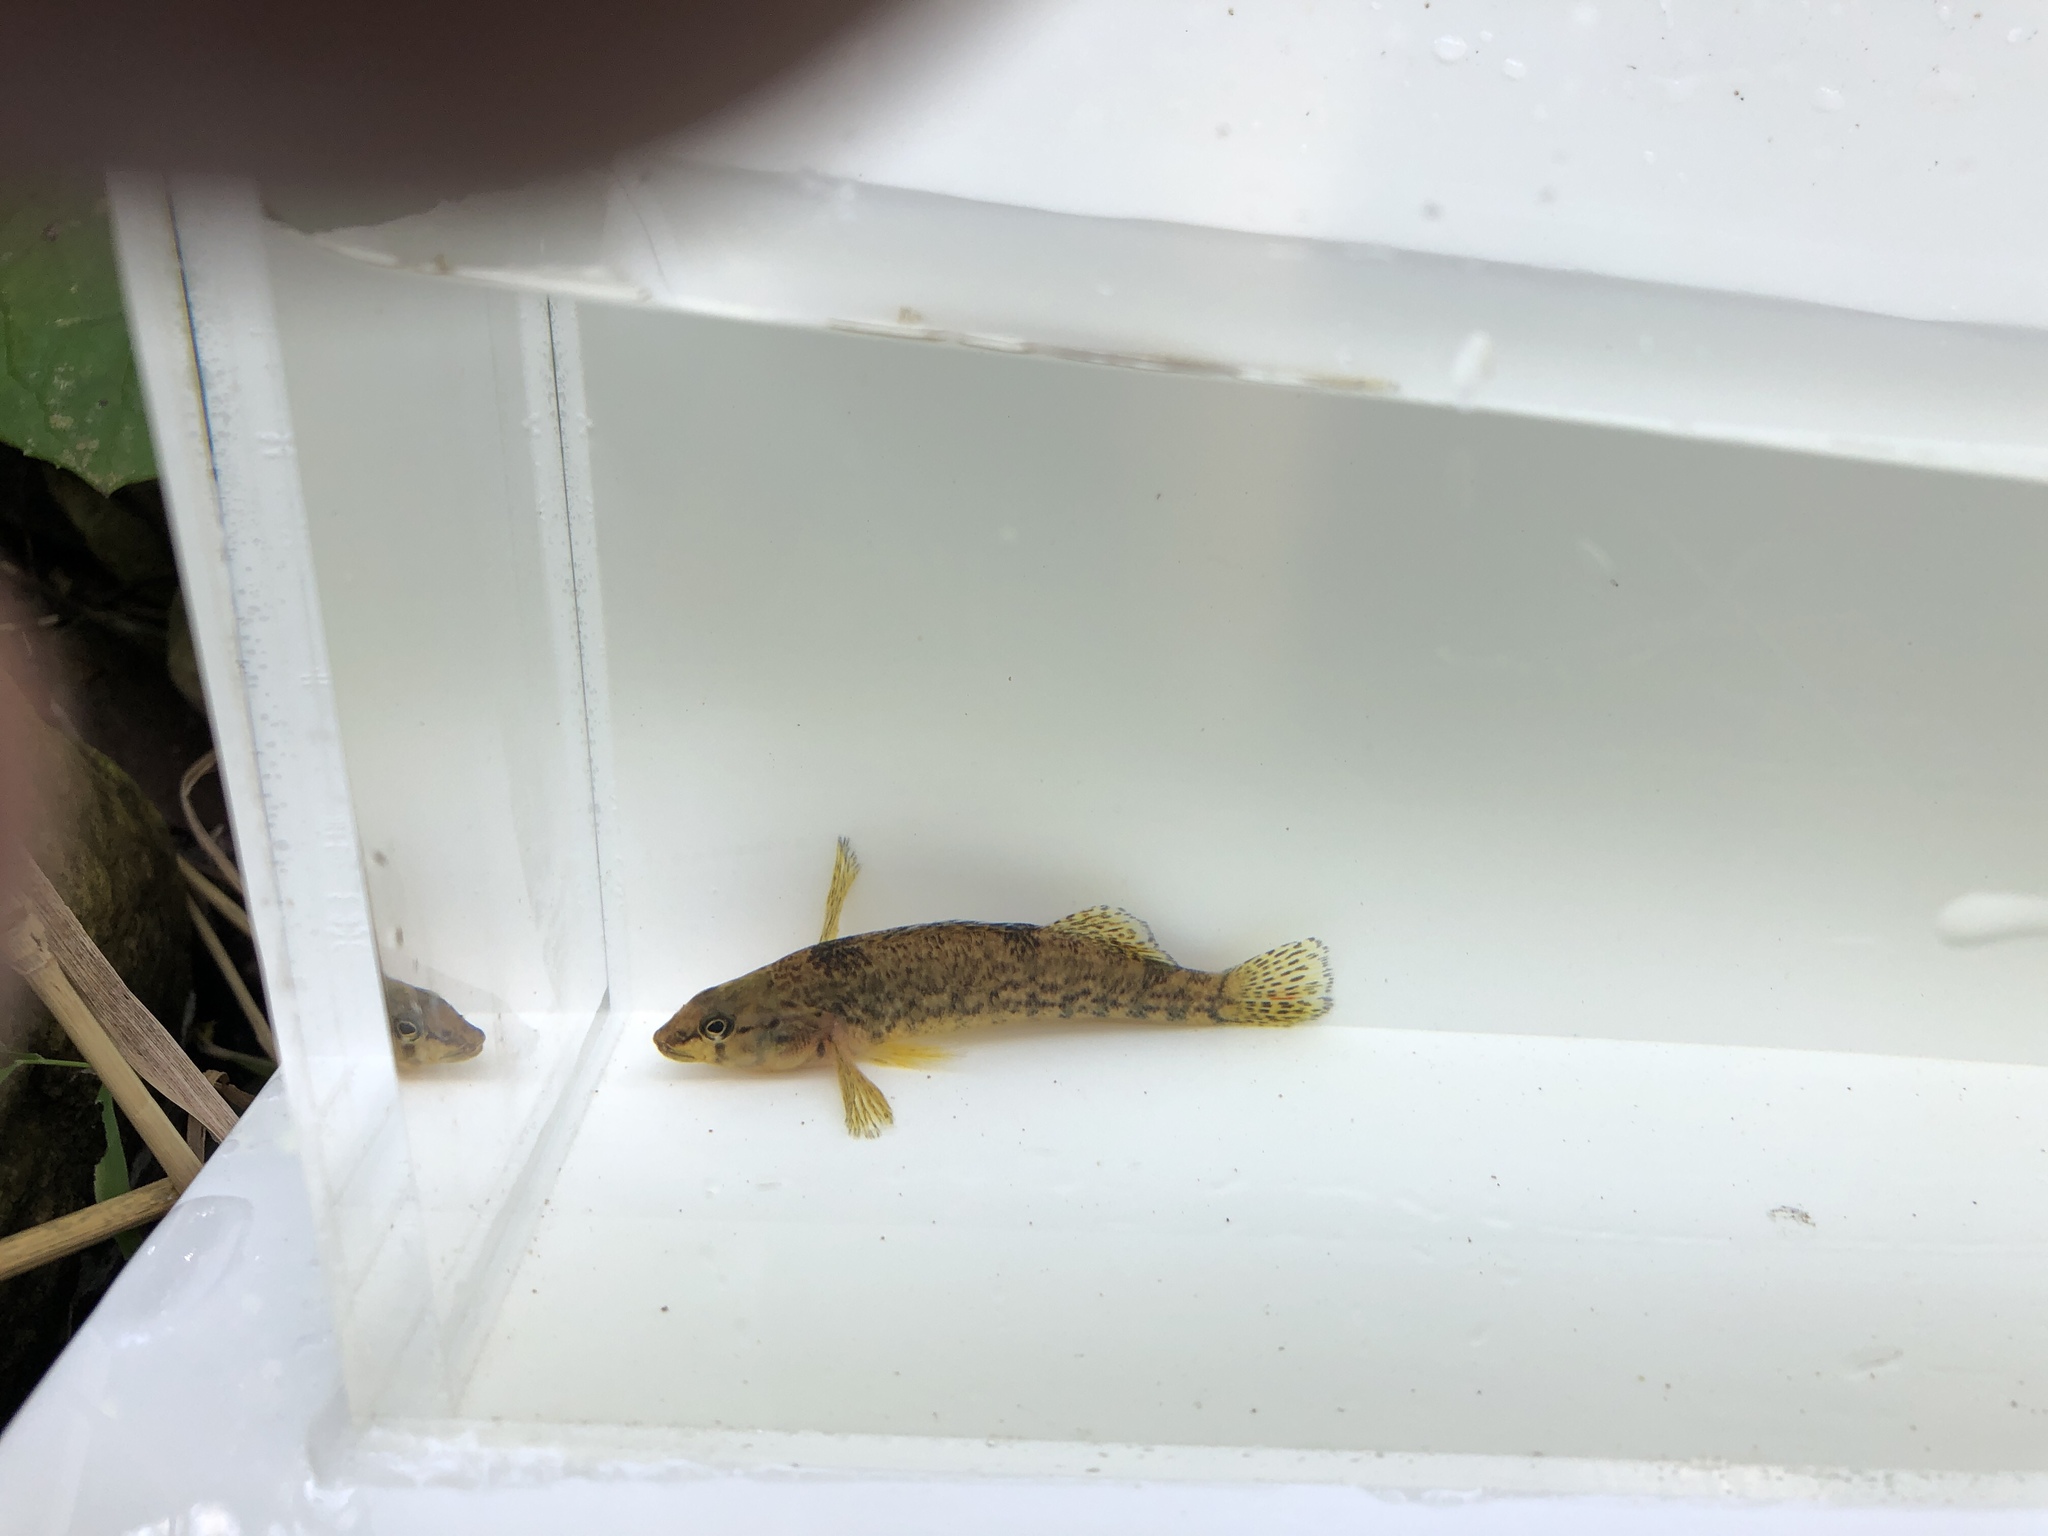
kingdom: Animalia
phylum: Chordata
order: Perciformes
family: Percidae
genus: Etheostoma
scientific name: Etheostoma caeruleum
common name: Rainbow darter
